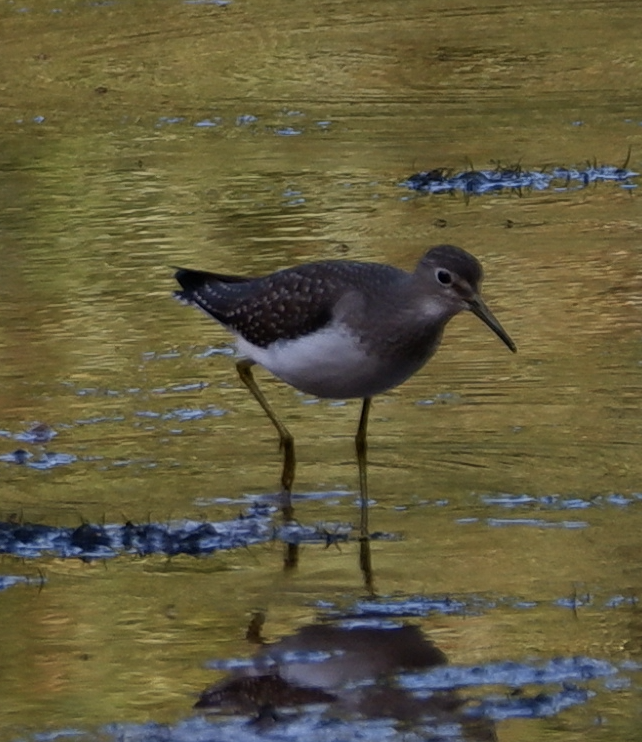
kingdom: Animalia
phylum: Chordata
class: Aves
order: Charadriiformes
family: Scolopacidae
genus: Tringa
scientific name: Tringa solitaria
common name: Solitary sandpiper
